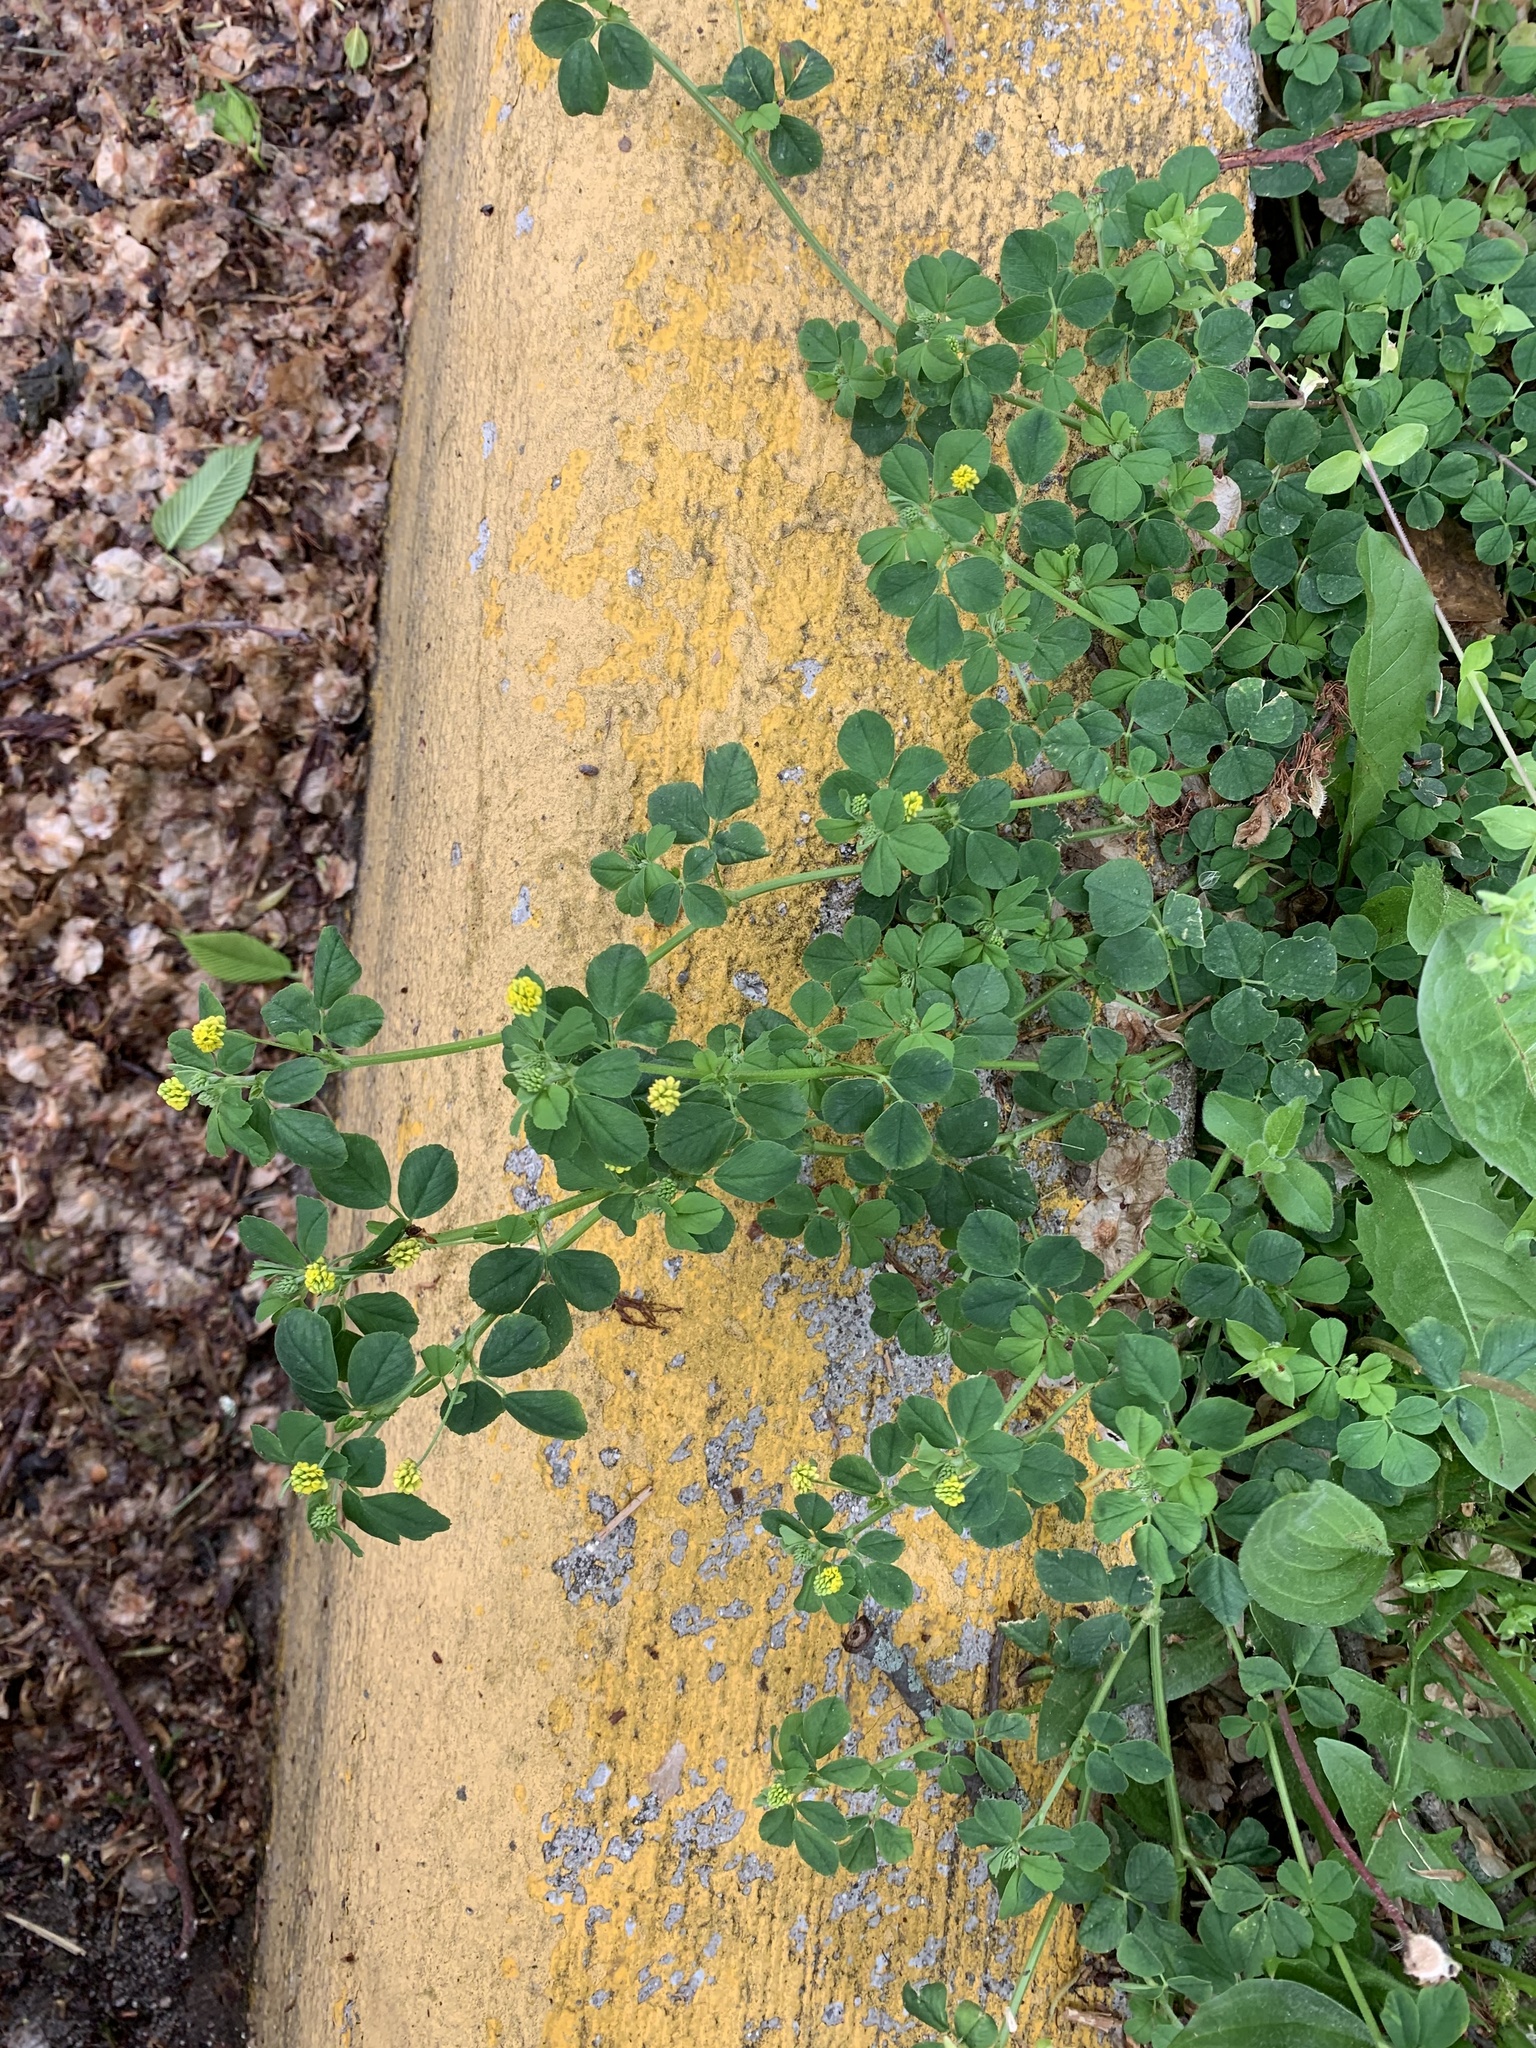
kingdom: Plantae
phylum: Tracheophyta
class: Magnoliopsida
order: Fabales
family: Fabaceae
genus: Medicago
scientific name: Medicago lupulina
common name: Black medick
